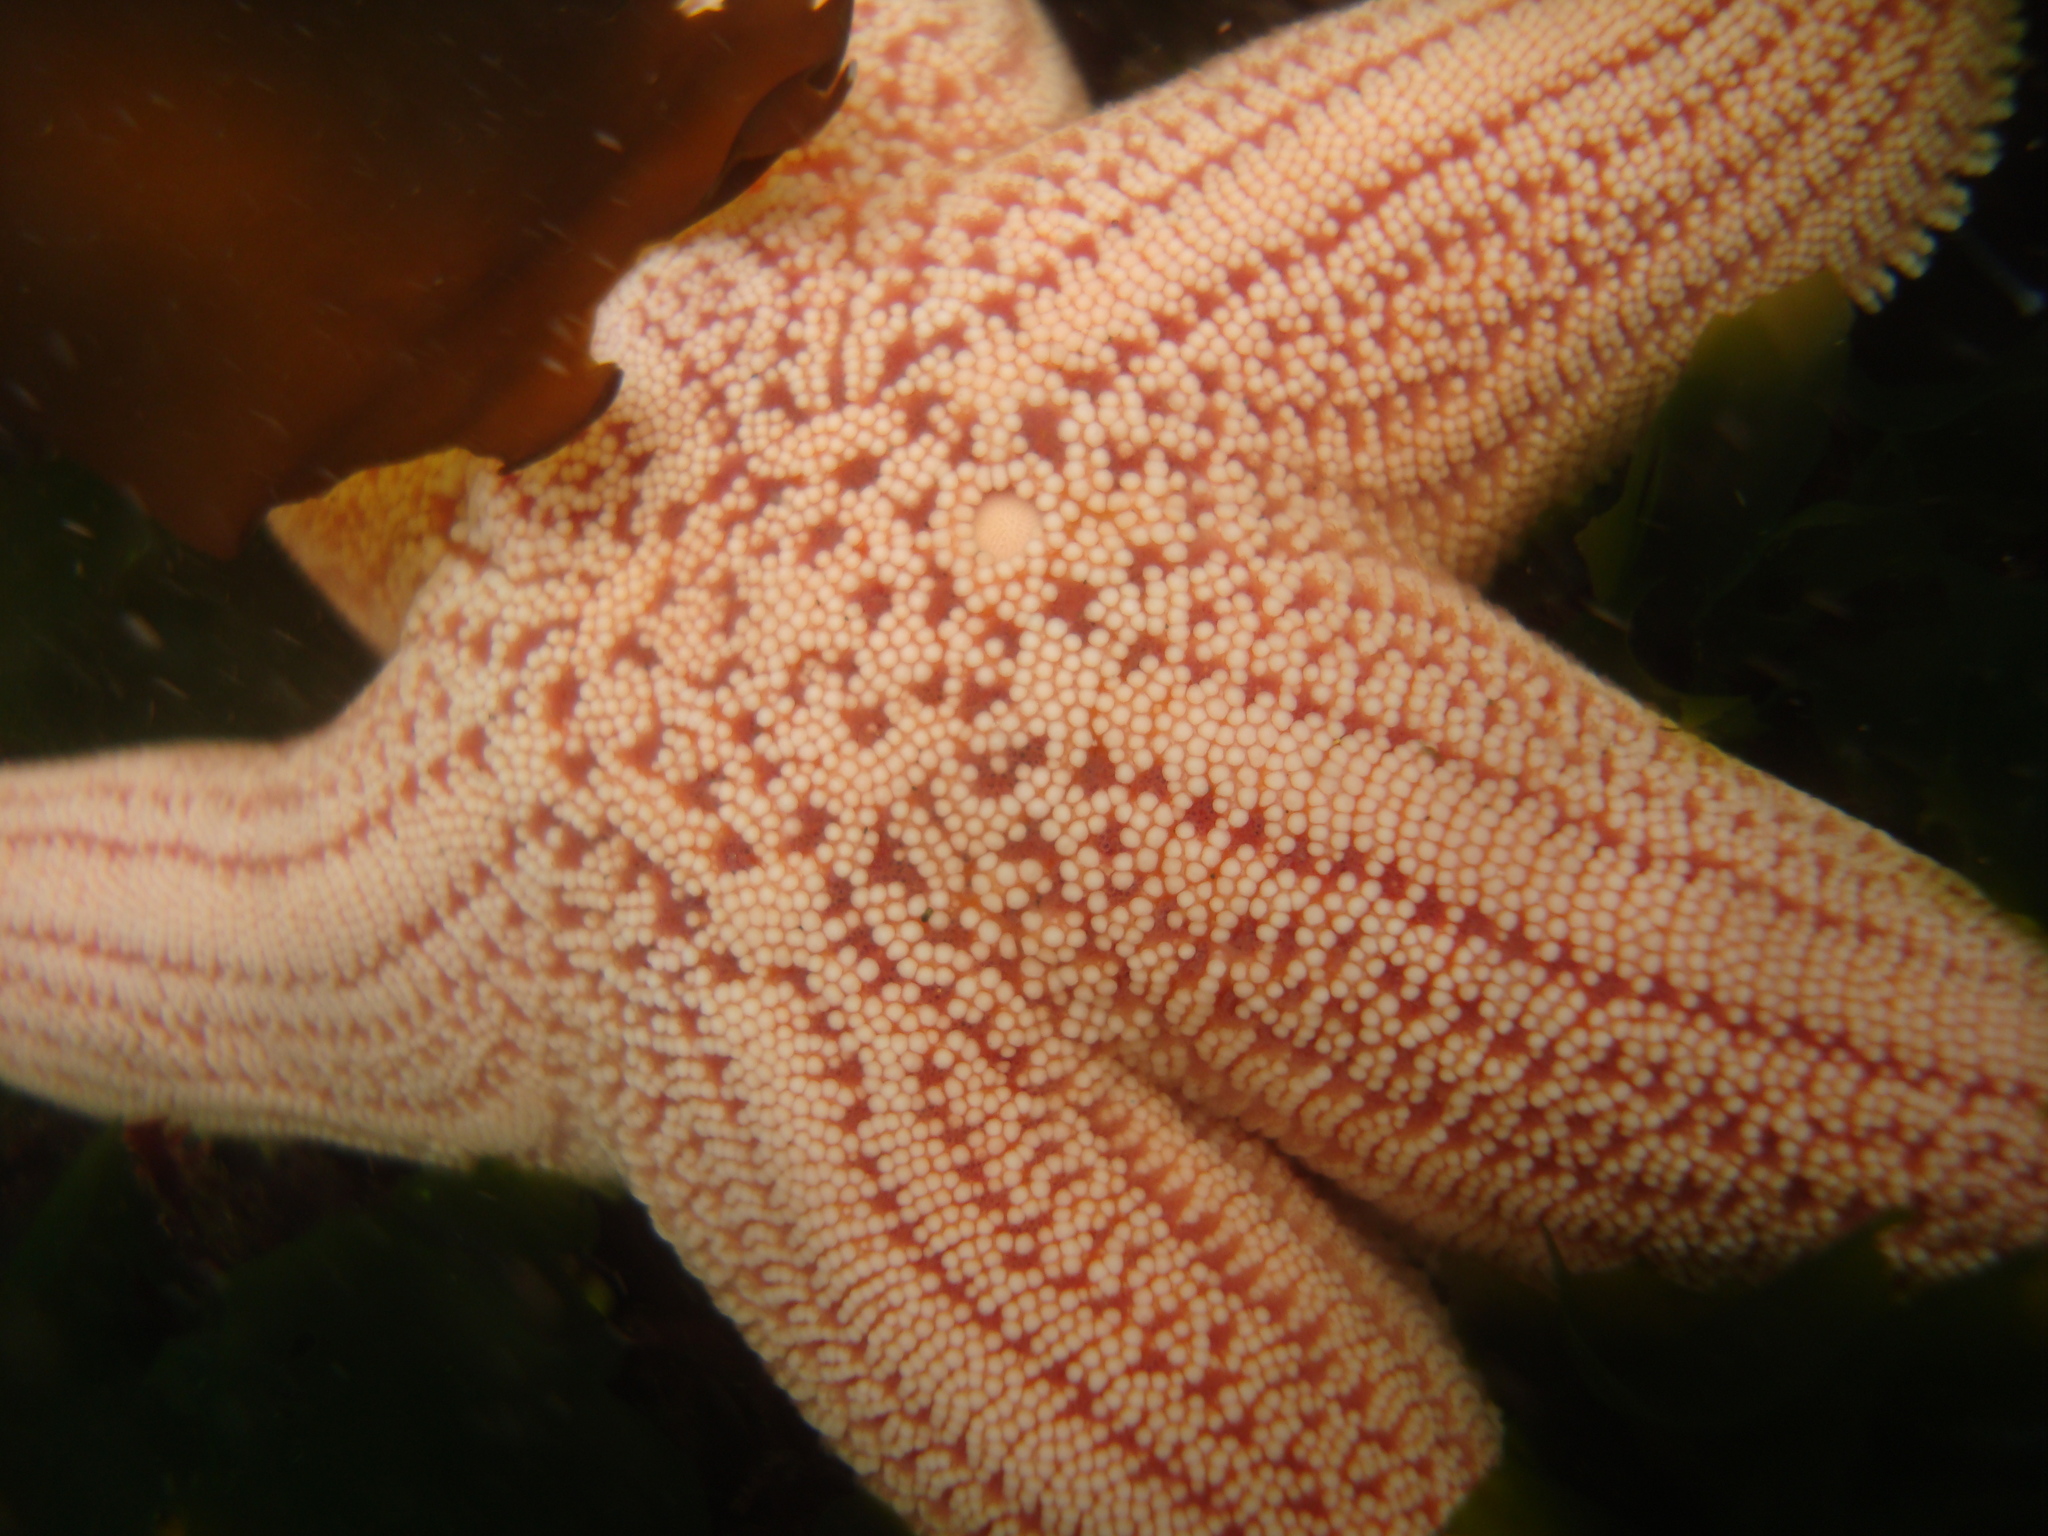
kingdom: Animalia
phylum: Echinodermata
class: Asteroidea
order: Forcipulatida
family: Stichasteridae
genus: Stichaster
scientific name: Stichaster striatus
